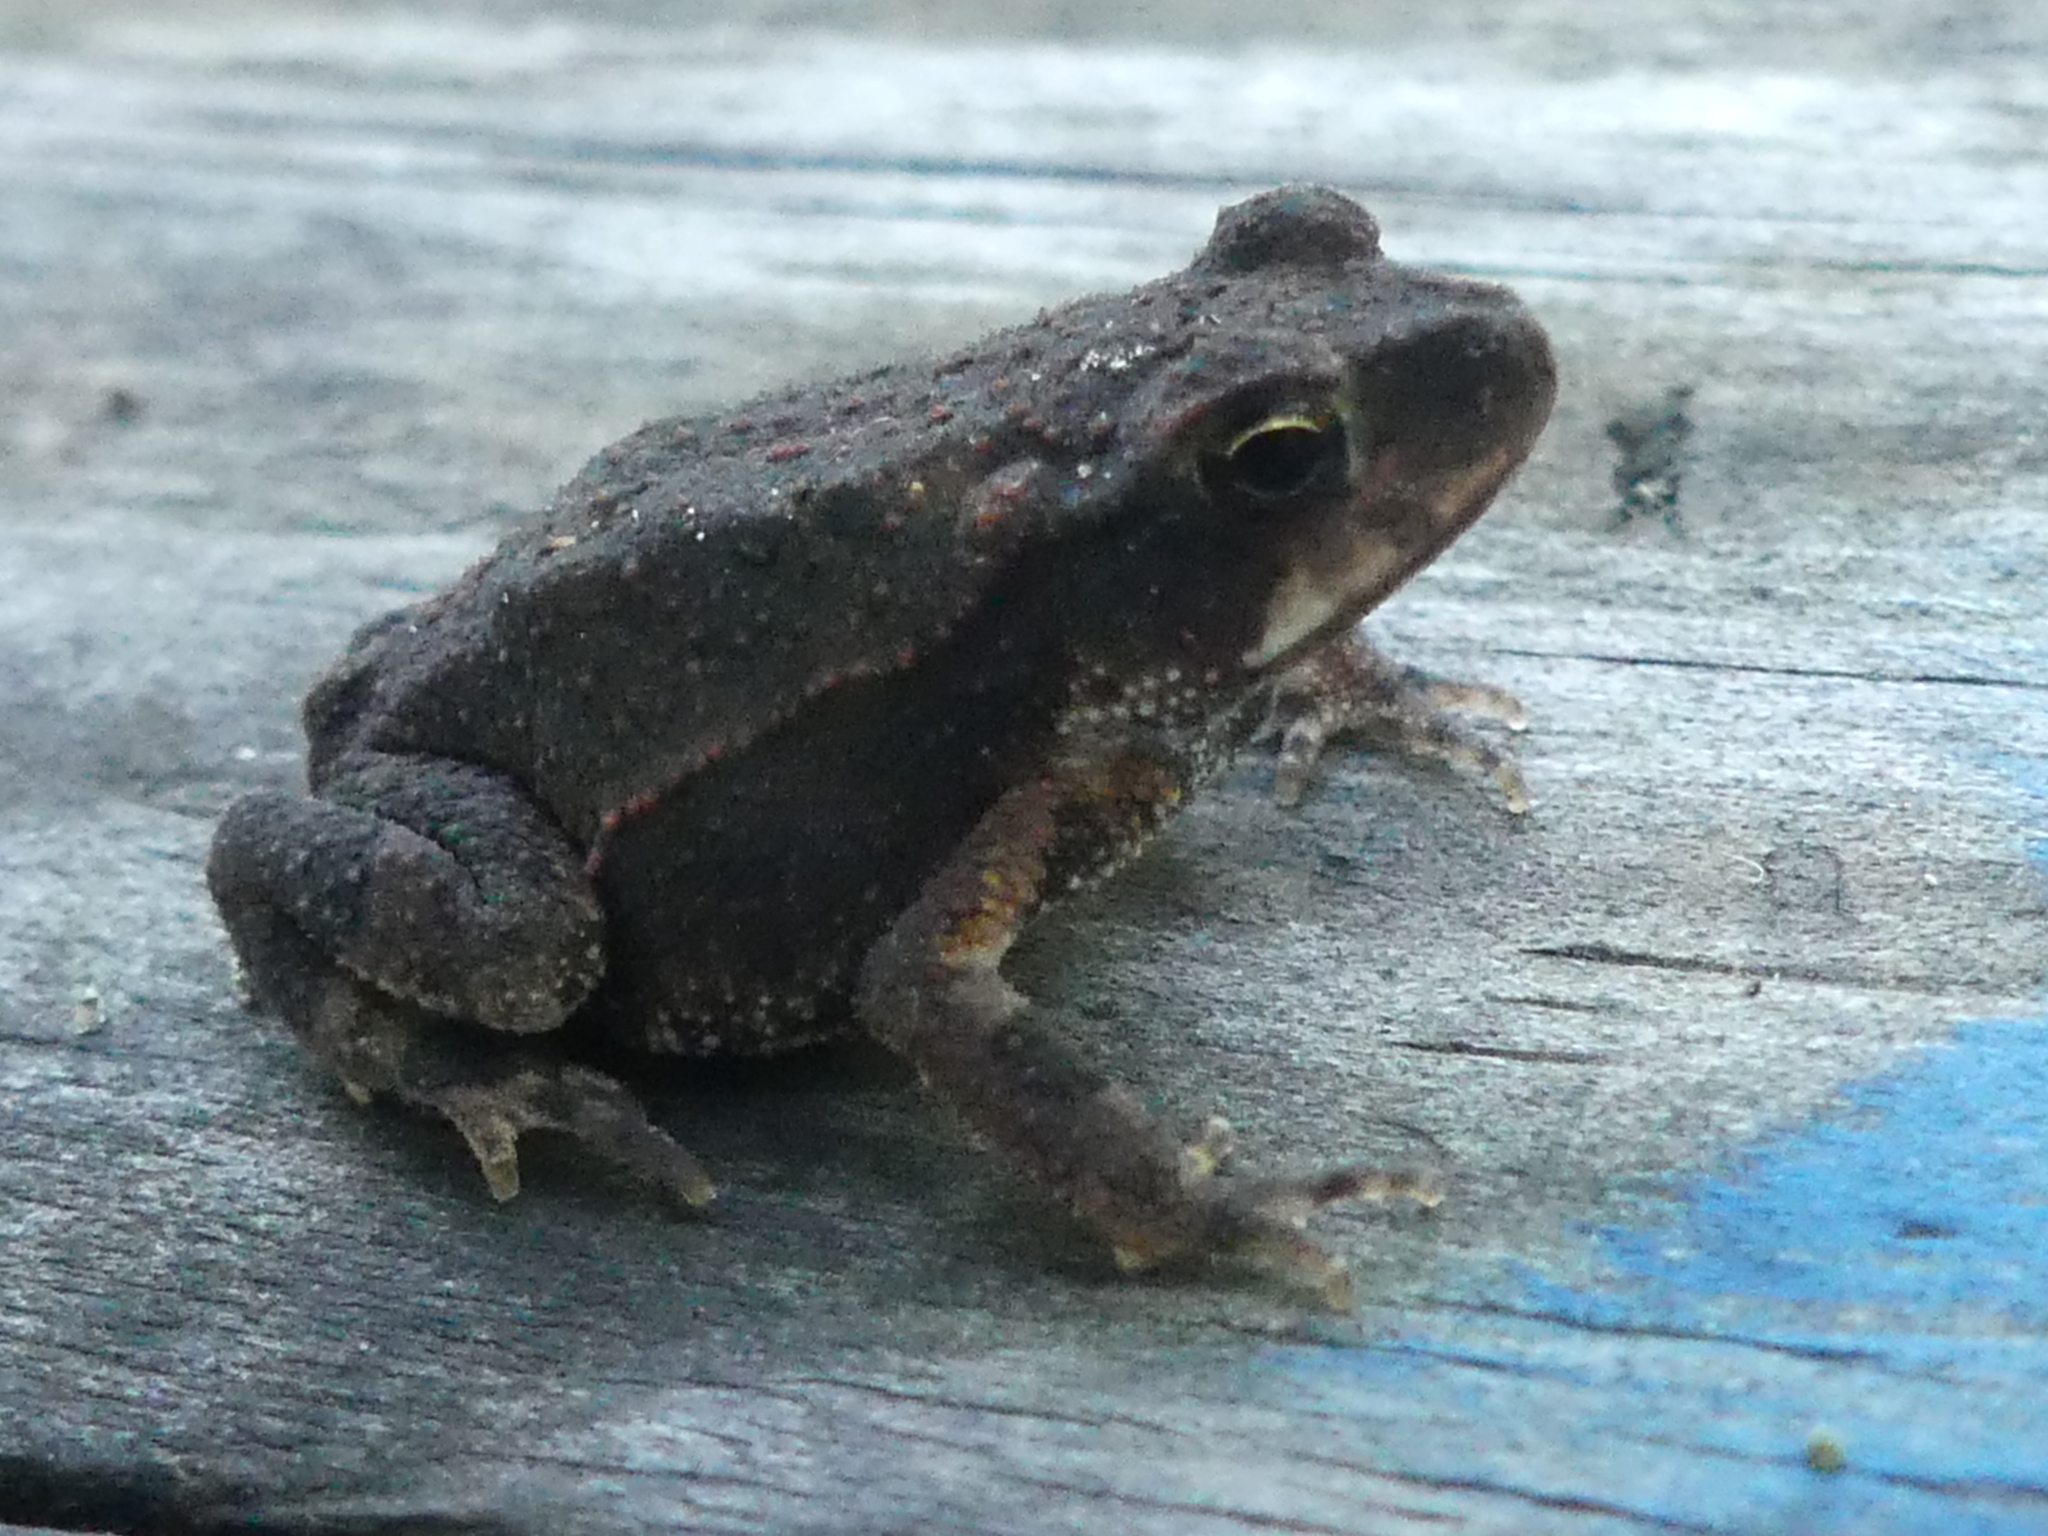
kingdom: Animalia
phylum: Chordata
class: Amphibia
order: Anura
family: Bufonidae
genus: Incilius
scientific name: Incilius nebulifer
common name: Gulf coast toad
